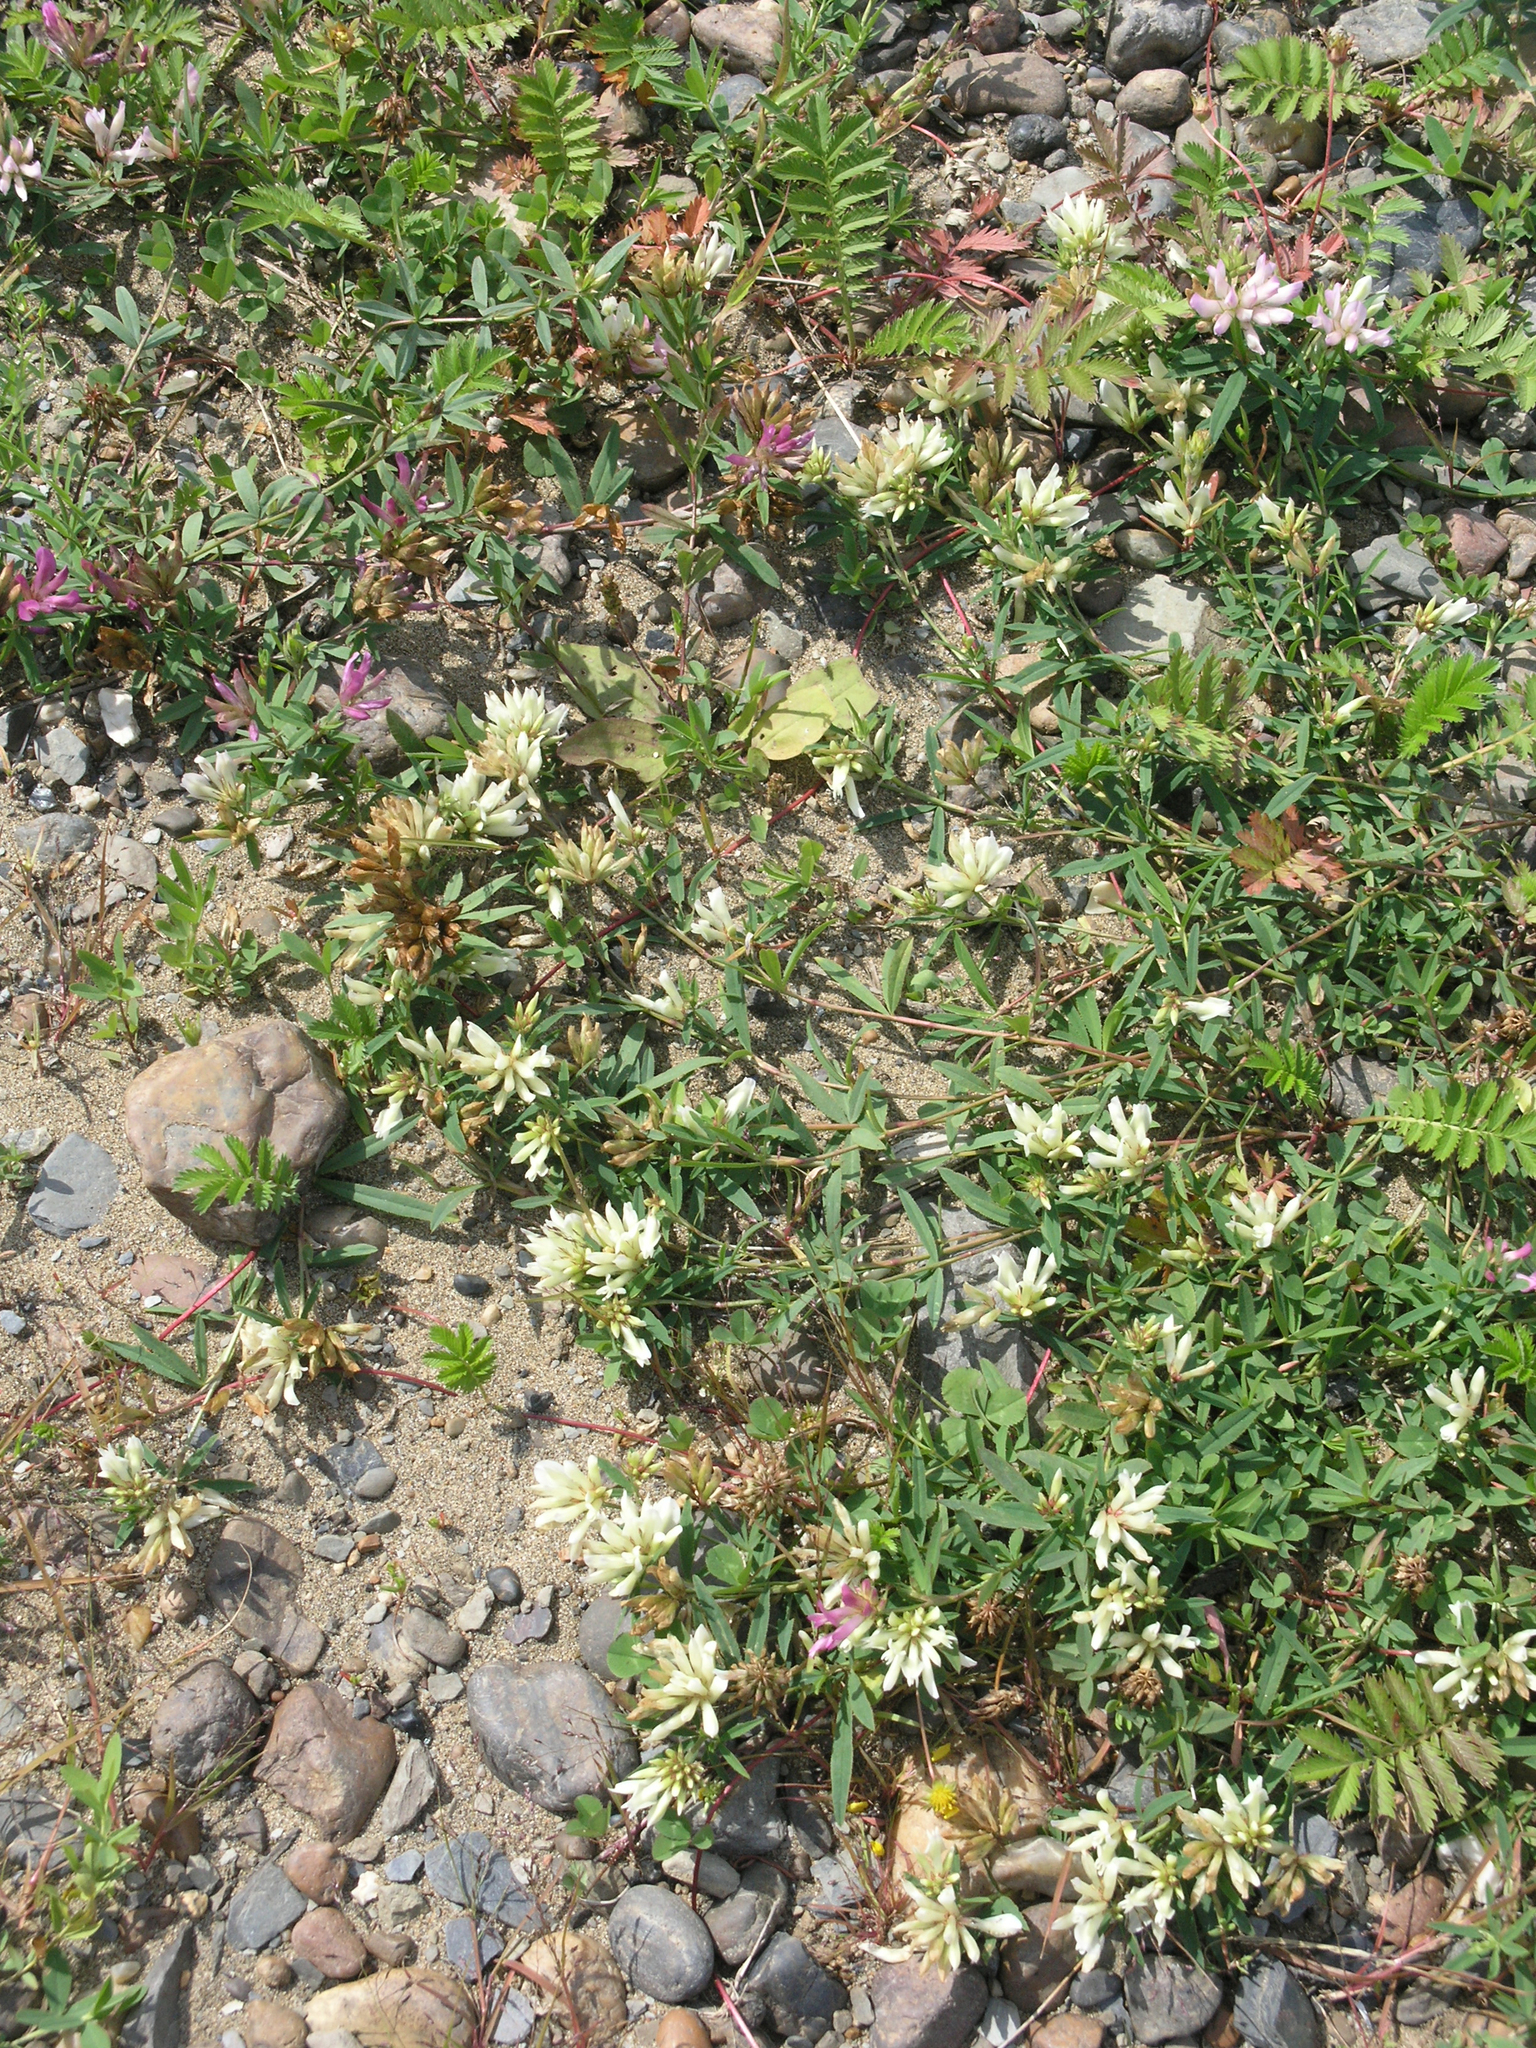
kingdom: Plantae
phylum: Tracheophyta
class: Magnoliopsida
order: Fabales
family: Fabaceae
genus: Trifolium
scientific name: Trifolium lupinaster
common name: Lupine clover
